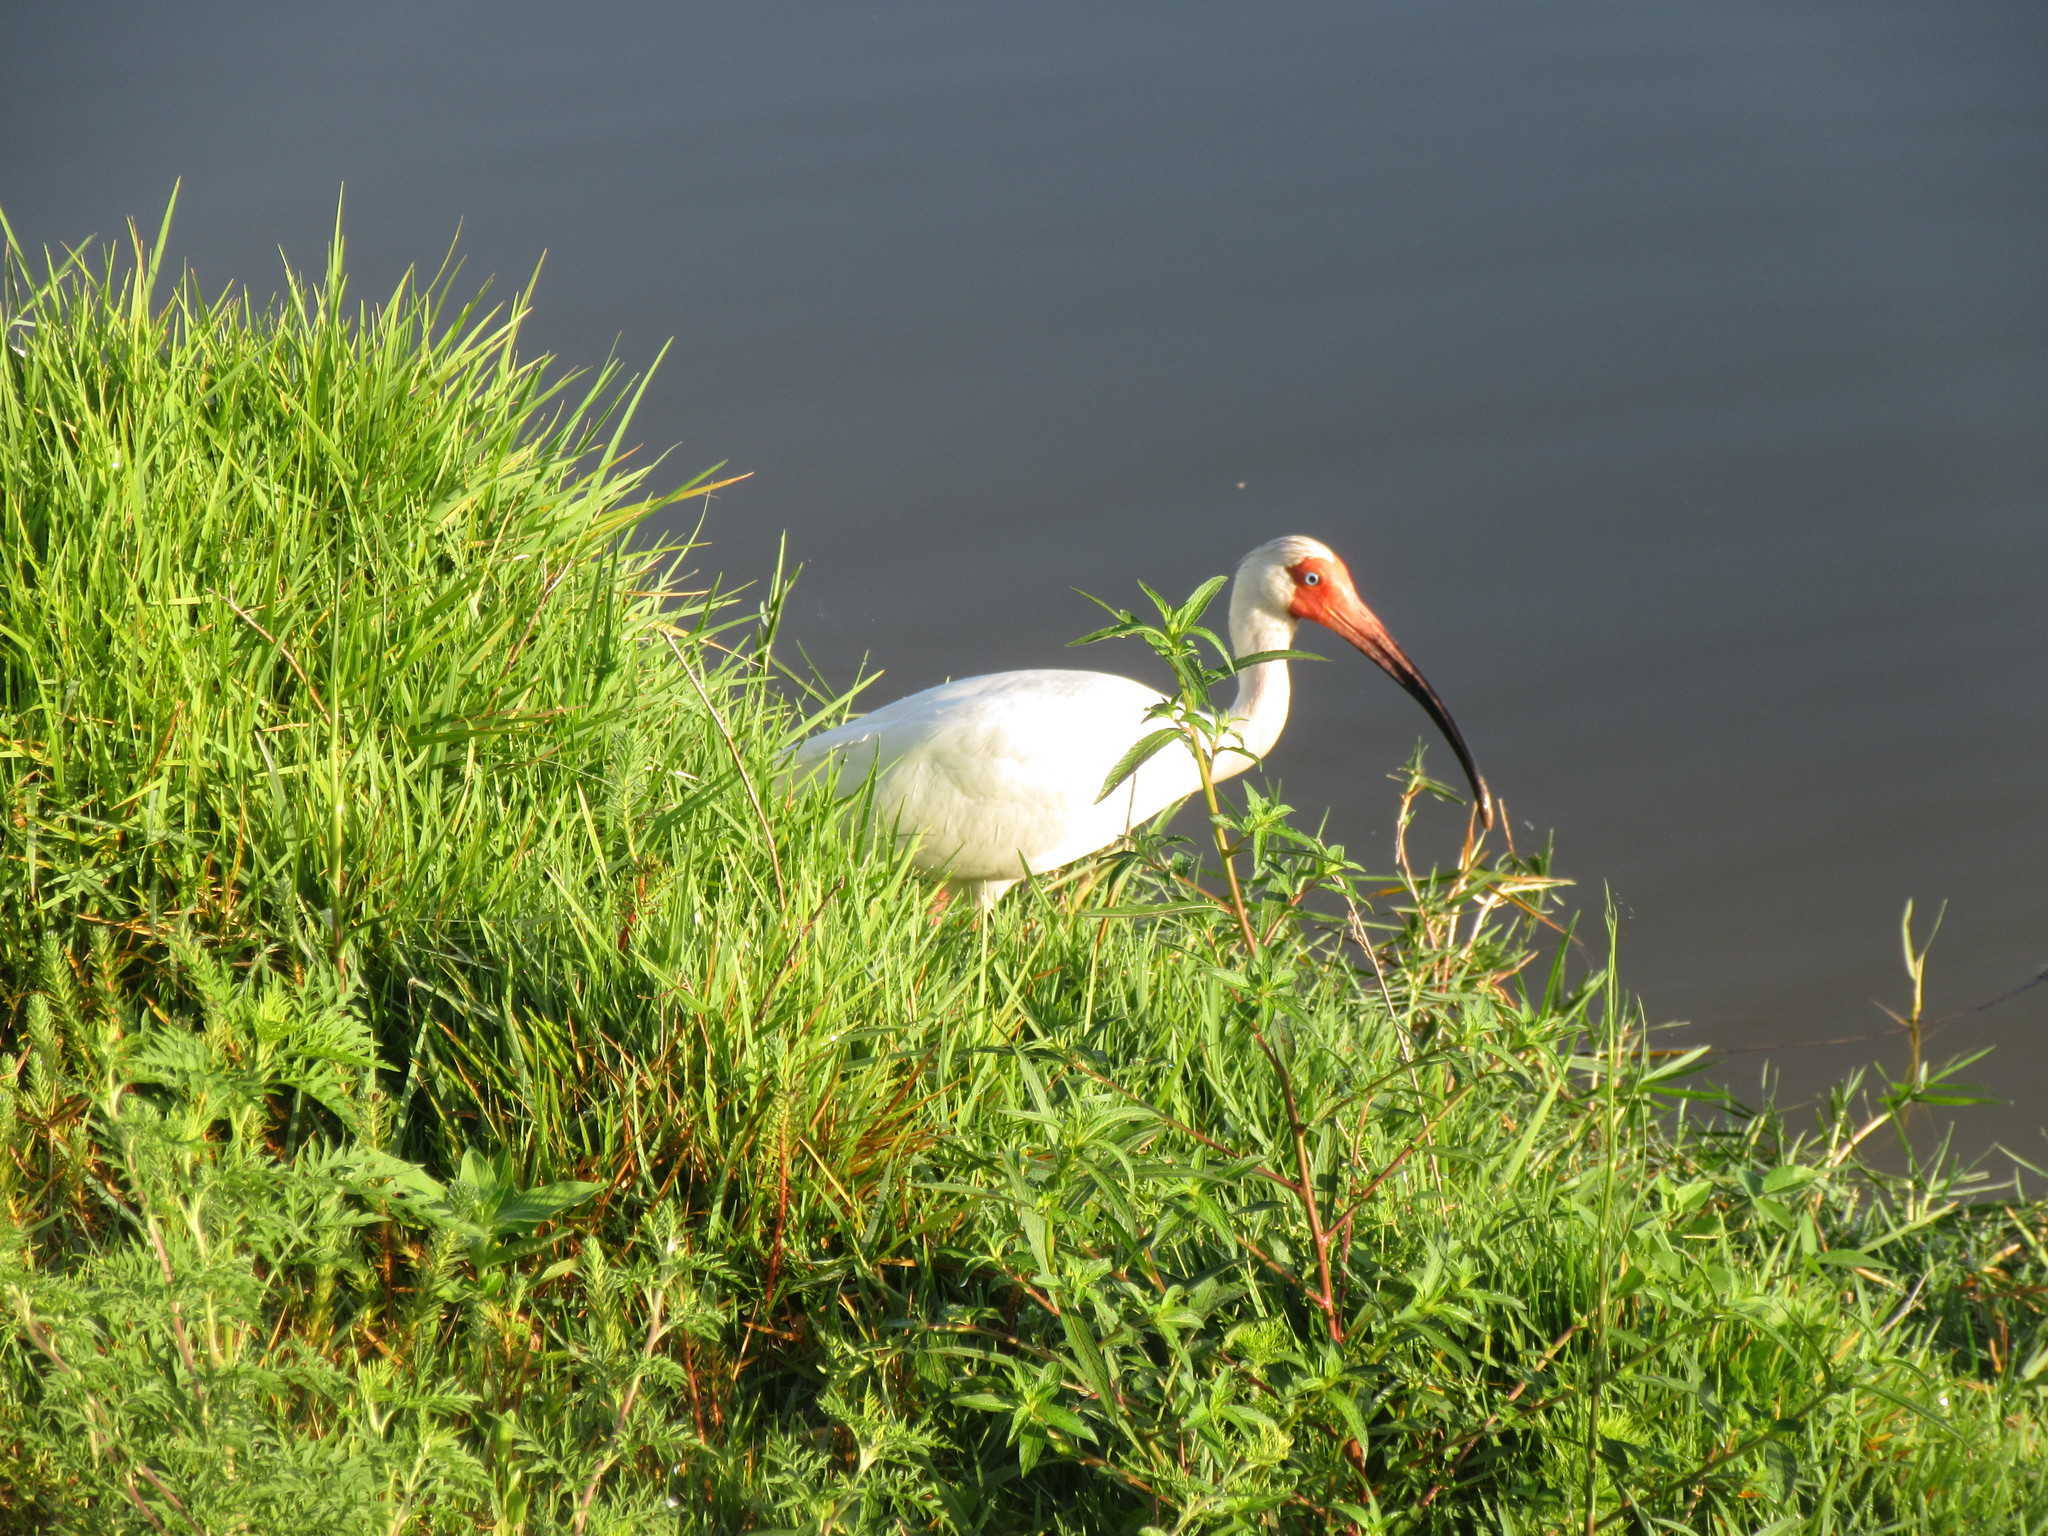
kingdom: Animalia
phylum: Chordata
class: Aves
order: Pelecaniformes
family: Threskiornithidae
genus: Eudocimus
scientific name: Eudocimus albus
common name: White ibis
